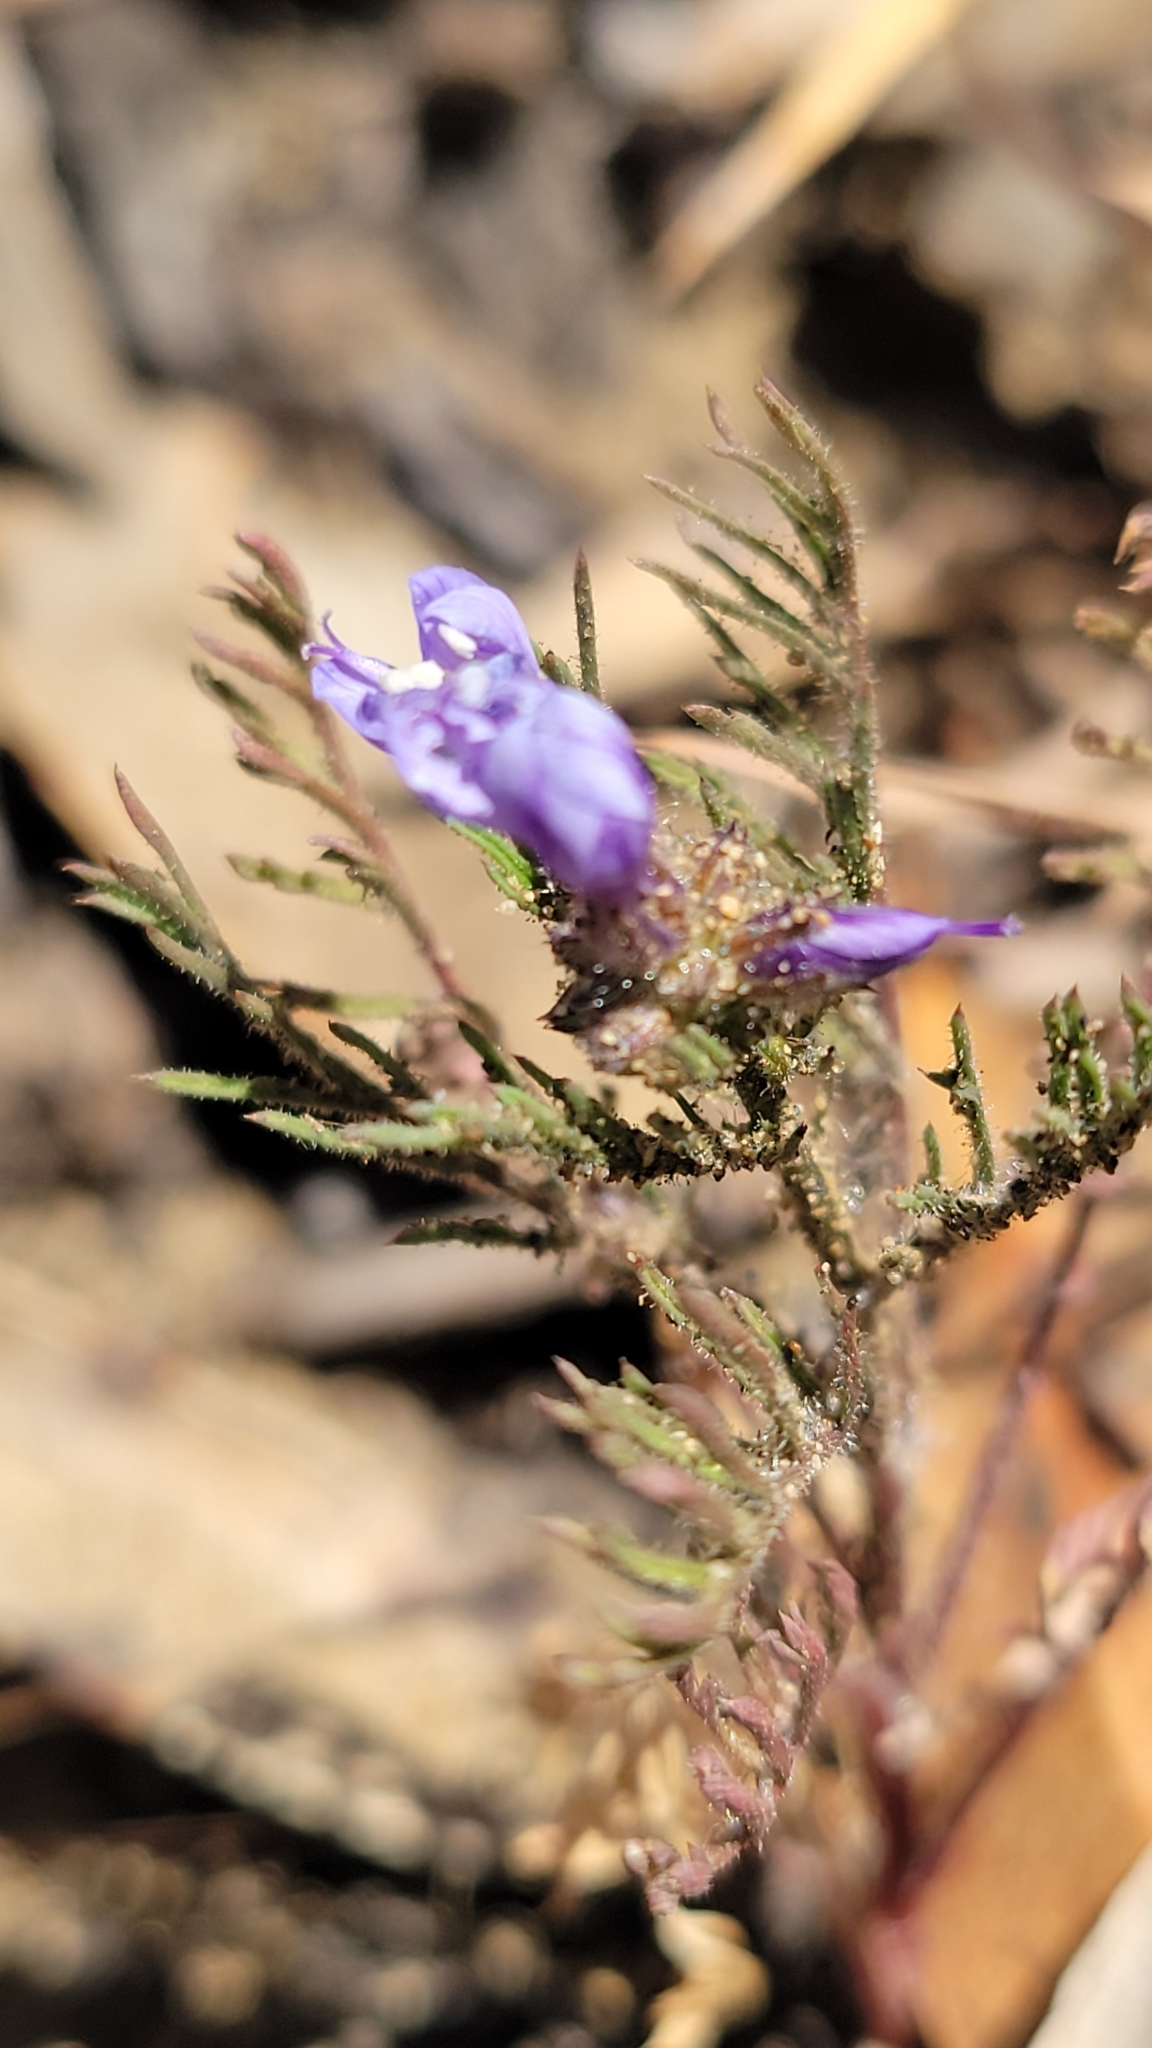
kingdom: Plantae
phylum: Tracheophyta
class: Magnoliopsida
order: Ericales
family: Polemoniaceae
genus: Gilia
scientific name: Gilia capitata
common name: Bluehead gilia
